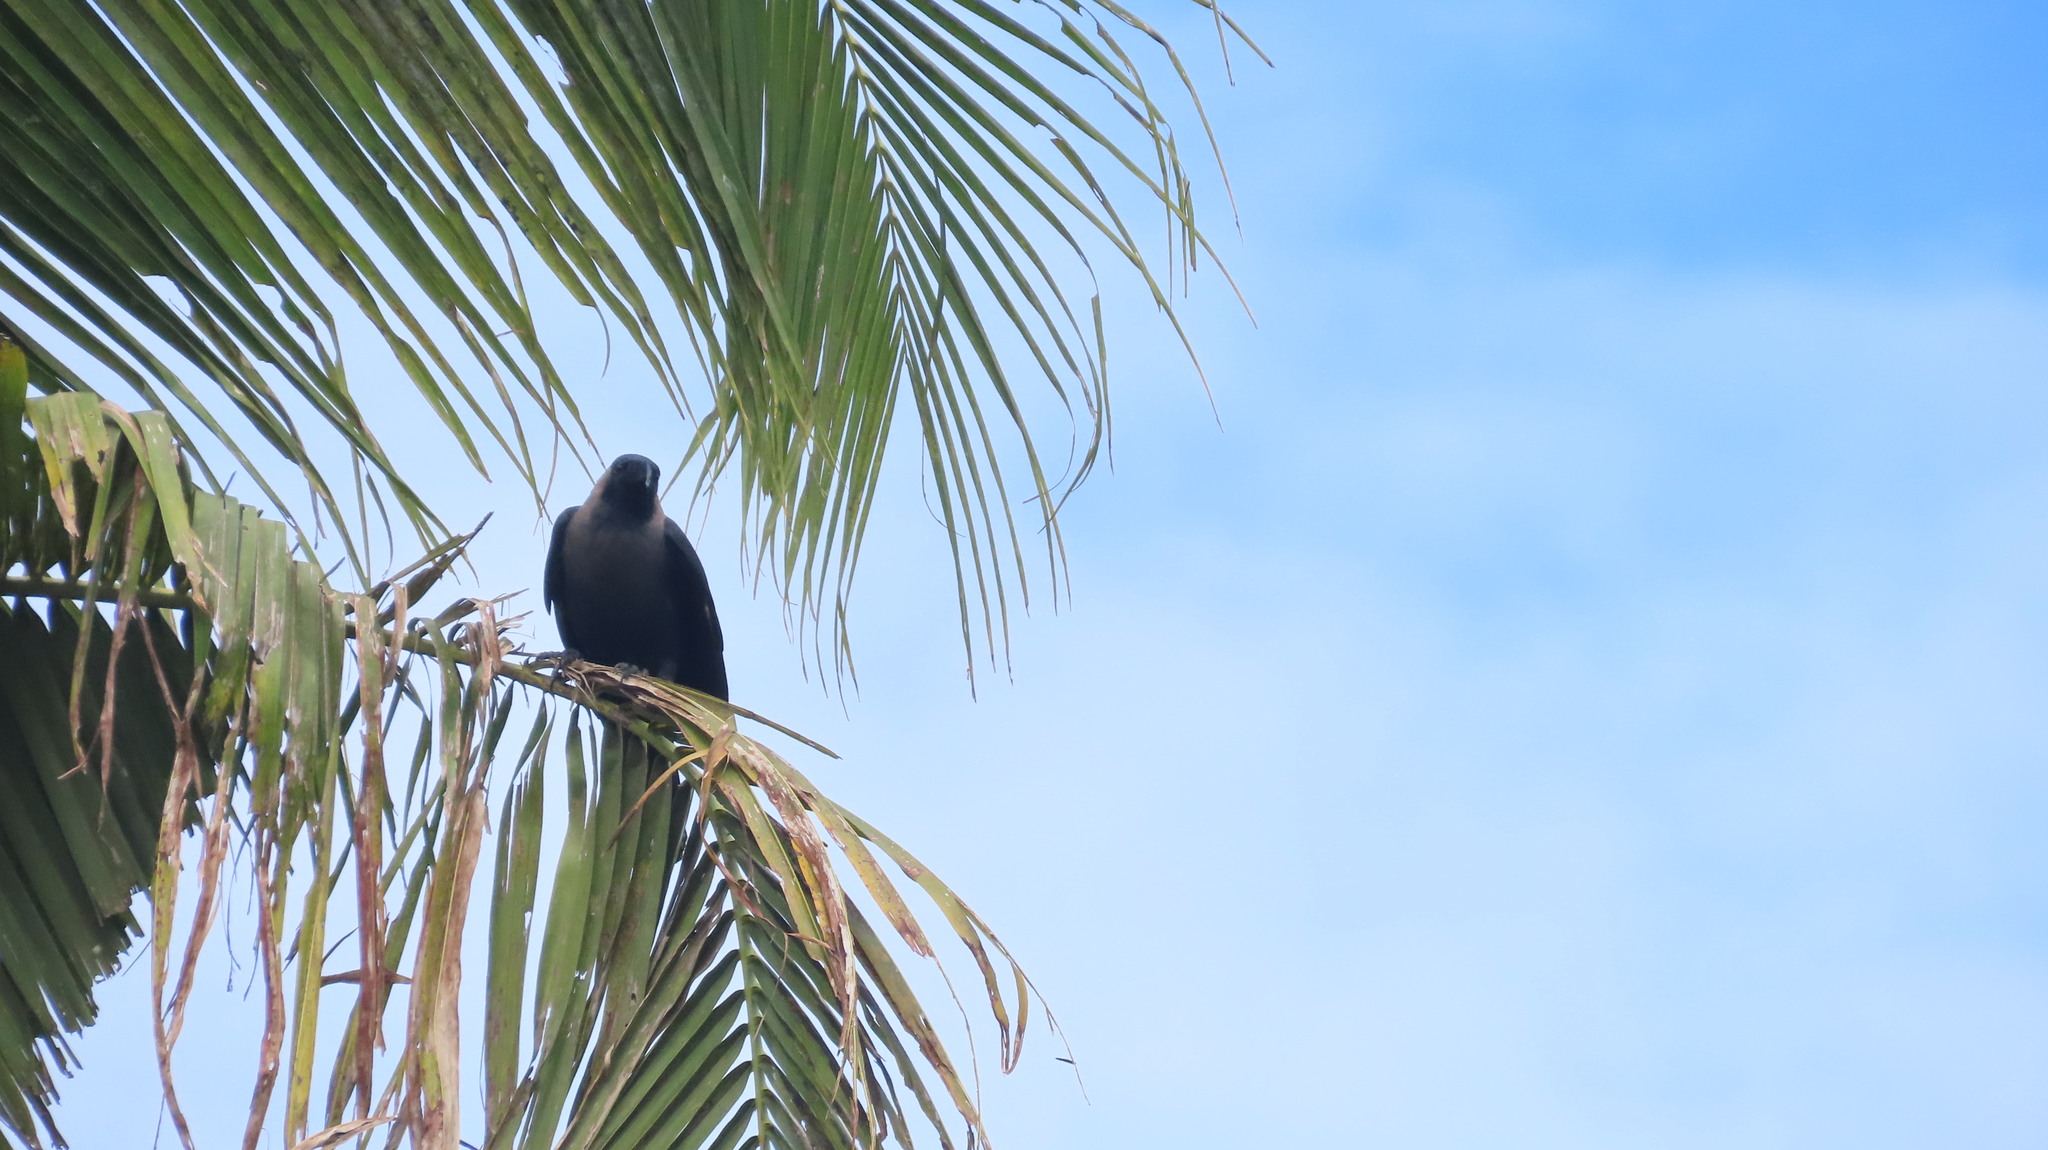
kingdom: Animalia
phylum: Chordata
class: Aves
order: Passeriformes
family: Corvidae
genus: Corvus
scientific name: Corvus splendens
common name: House crow
